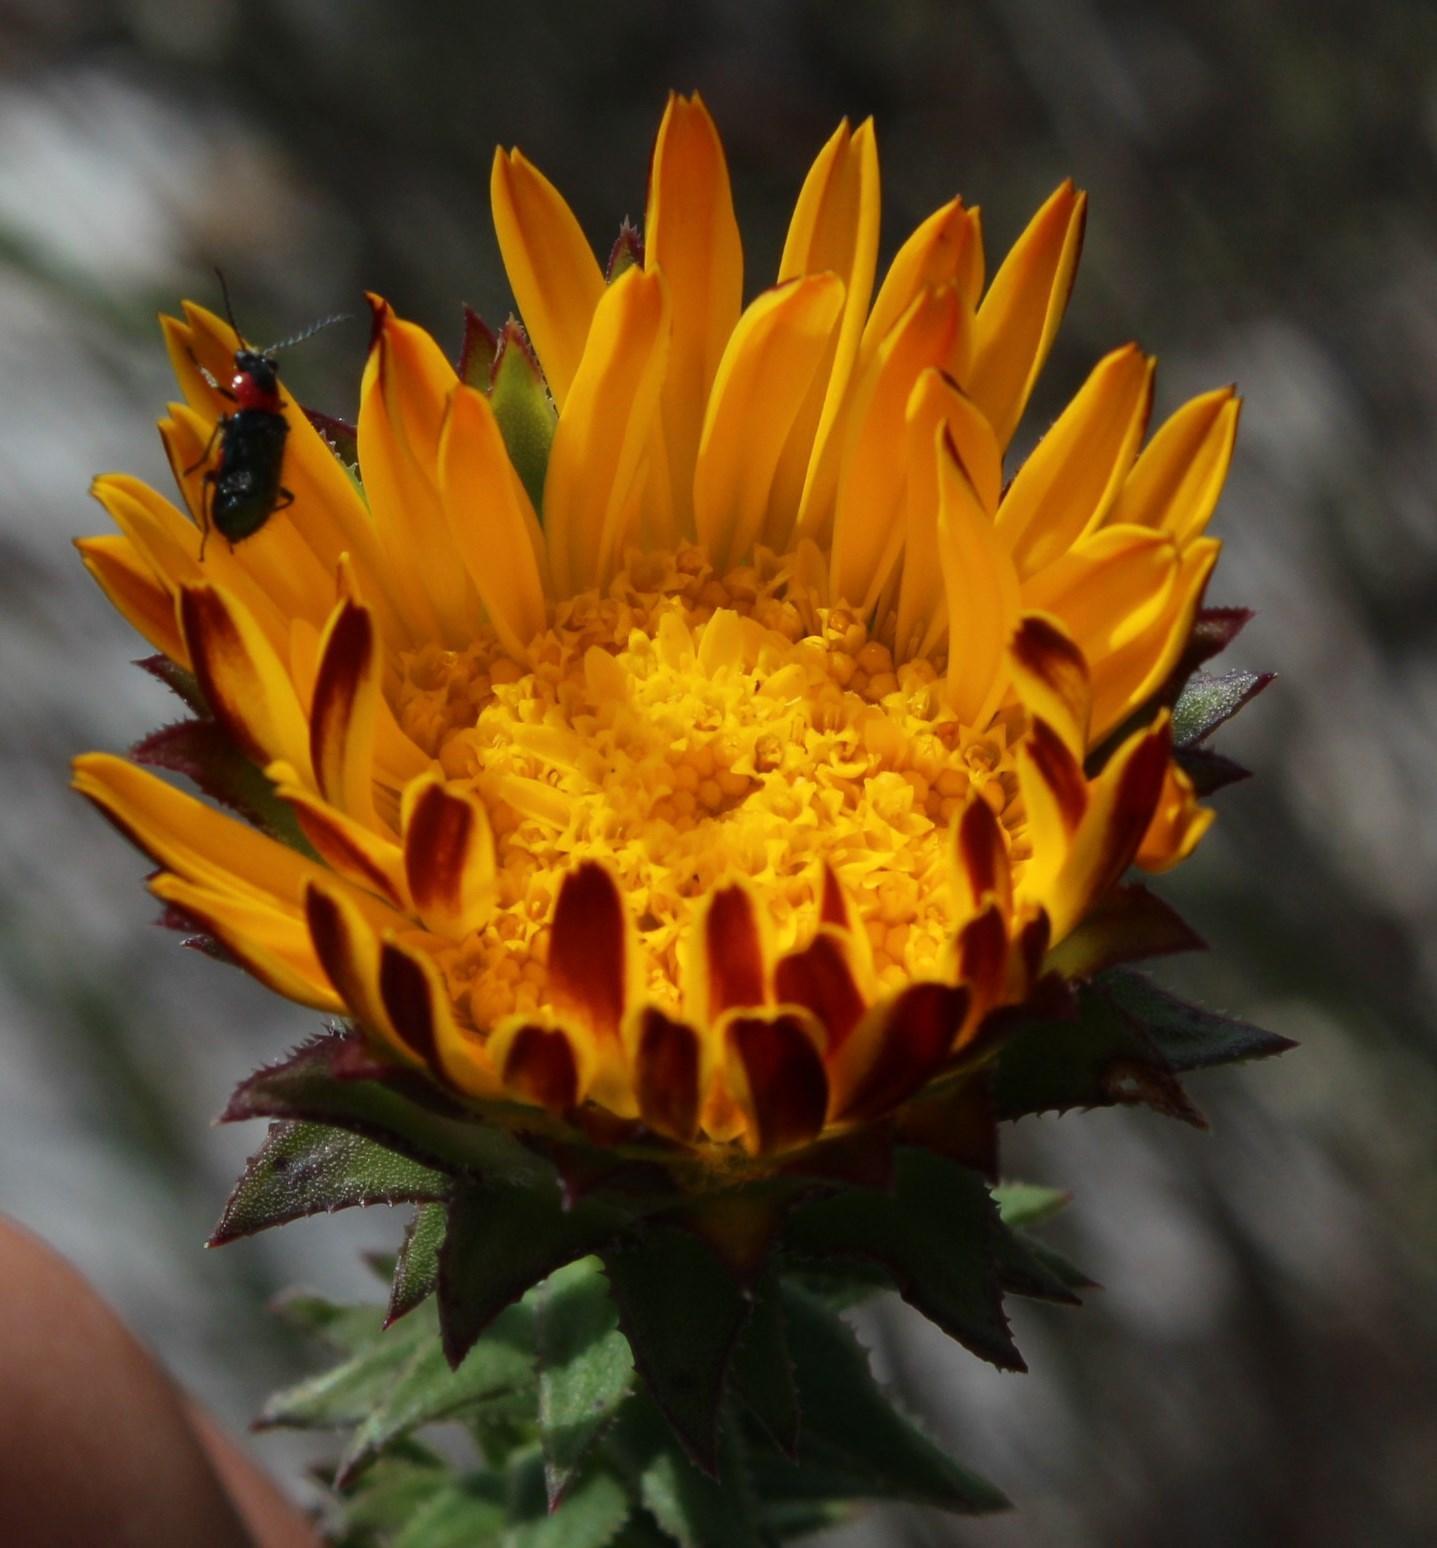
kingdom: Plantae
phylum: Tracheophyta
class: Magnoliopsida
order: Asterales
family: Asteraceae
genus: Oedera
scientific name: Oedera imbricata
